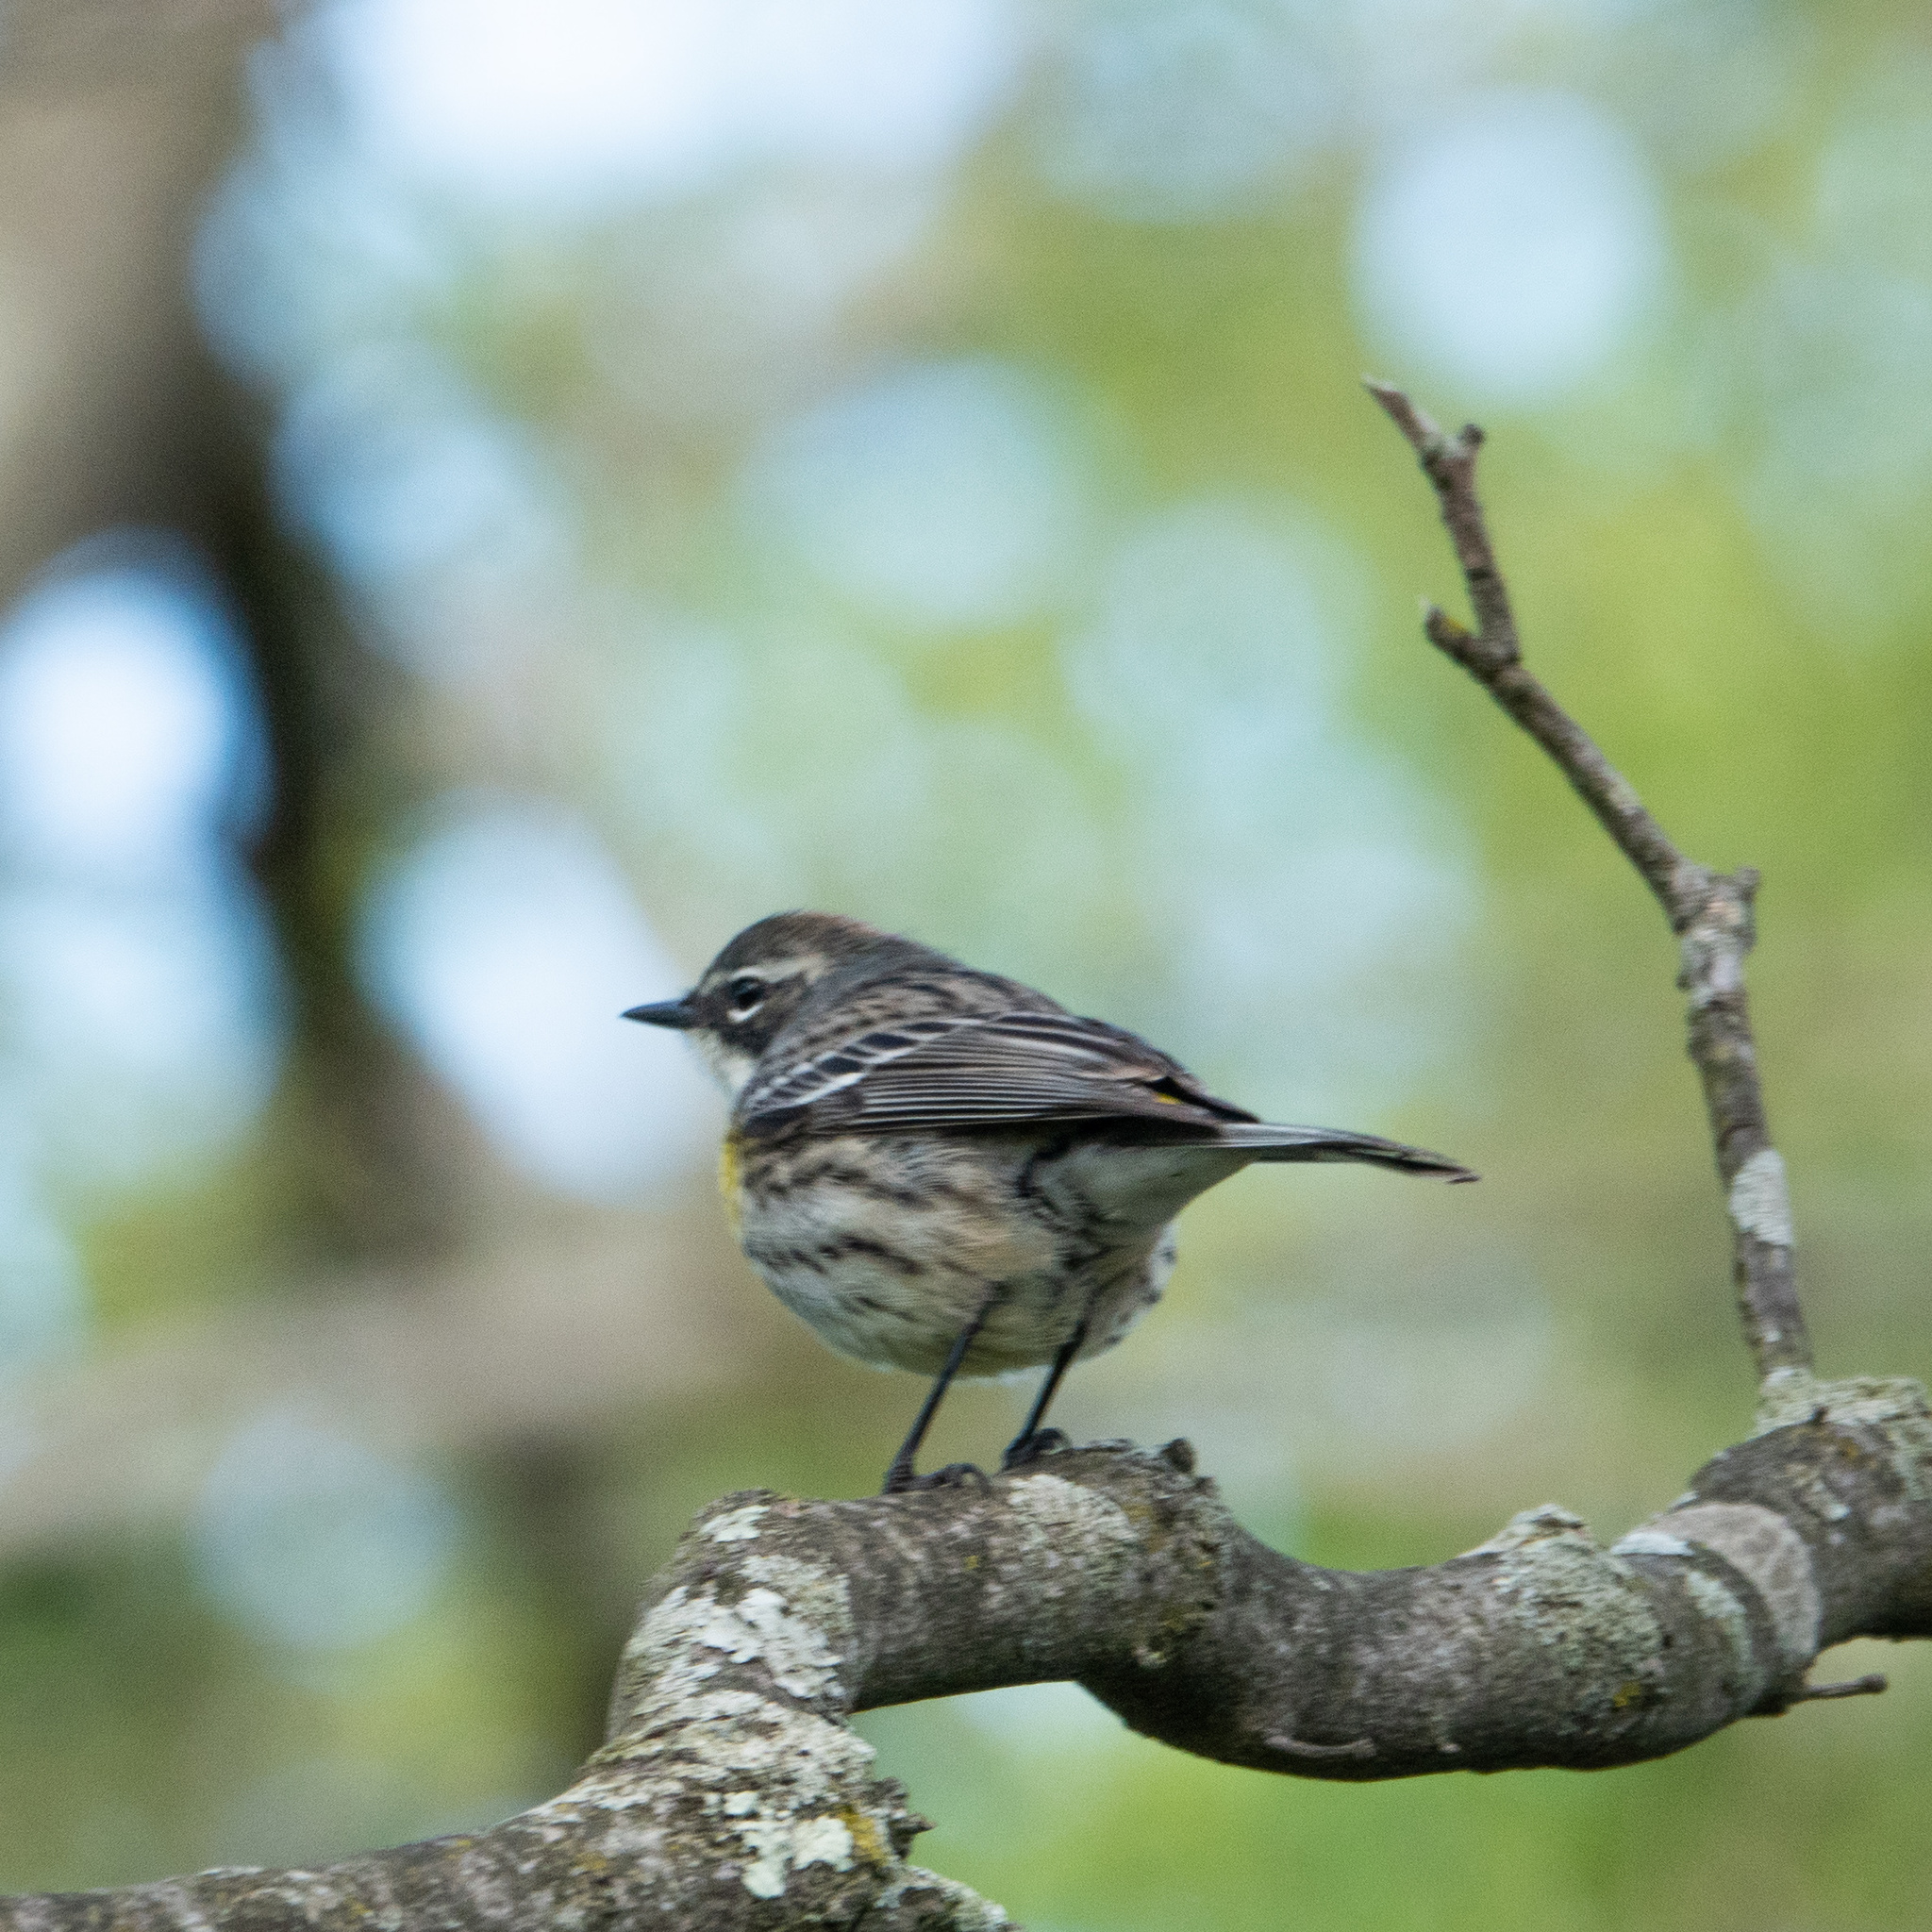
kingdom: Animalia
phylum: Chordata
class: Aves
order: Passeriformes
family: Parulidae
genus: Setophaga
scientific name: Setophaga coronata
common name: Myrtle warbler
